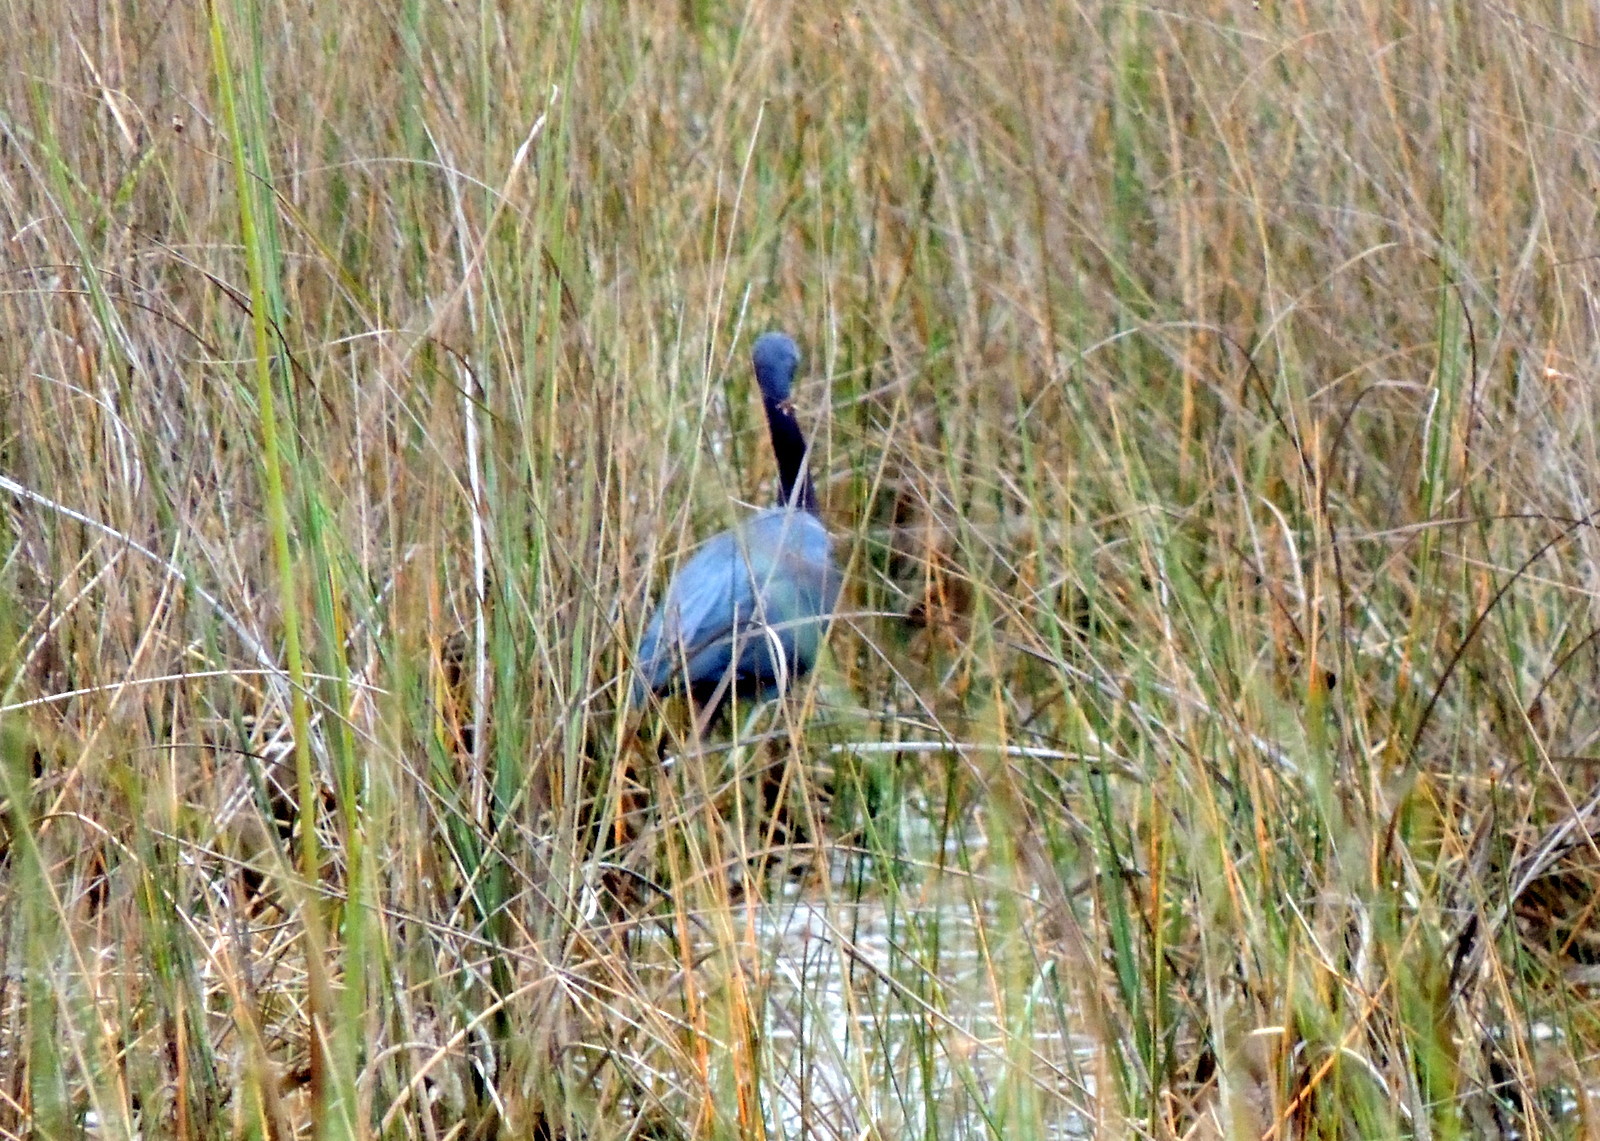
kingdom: Animalia
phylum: Chordata
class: Aves
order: Pelecaniformes
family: Ardeidae
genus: Egretta
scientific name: Egretta caerulea
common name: Little blue heron
